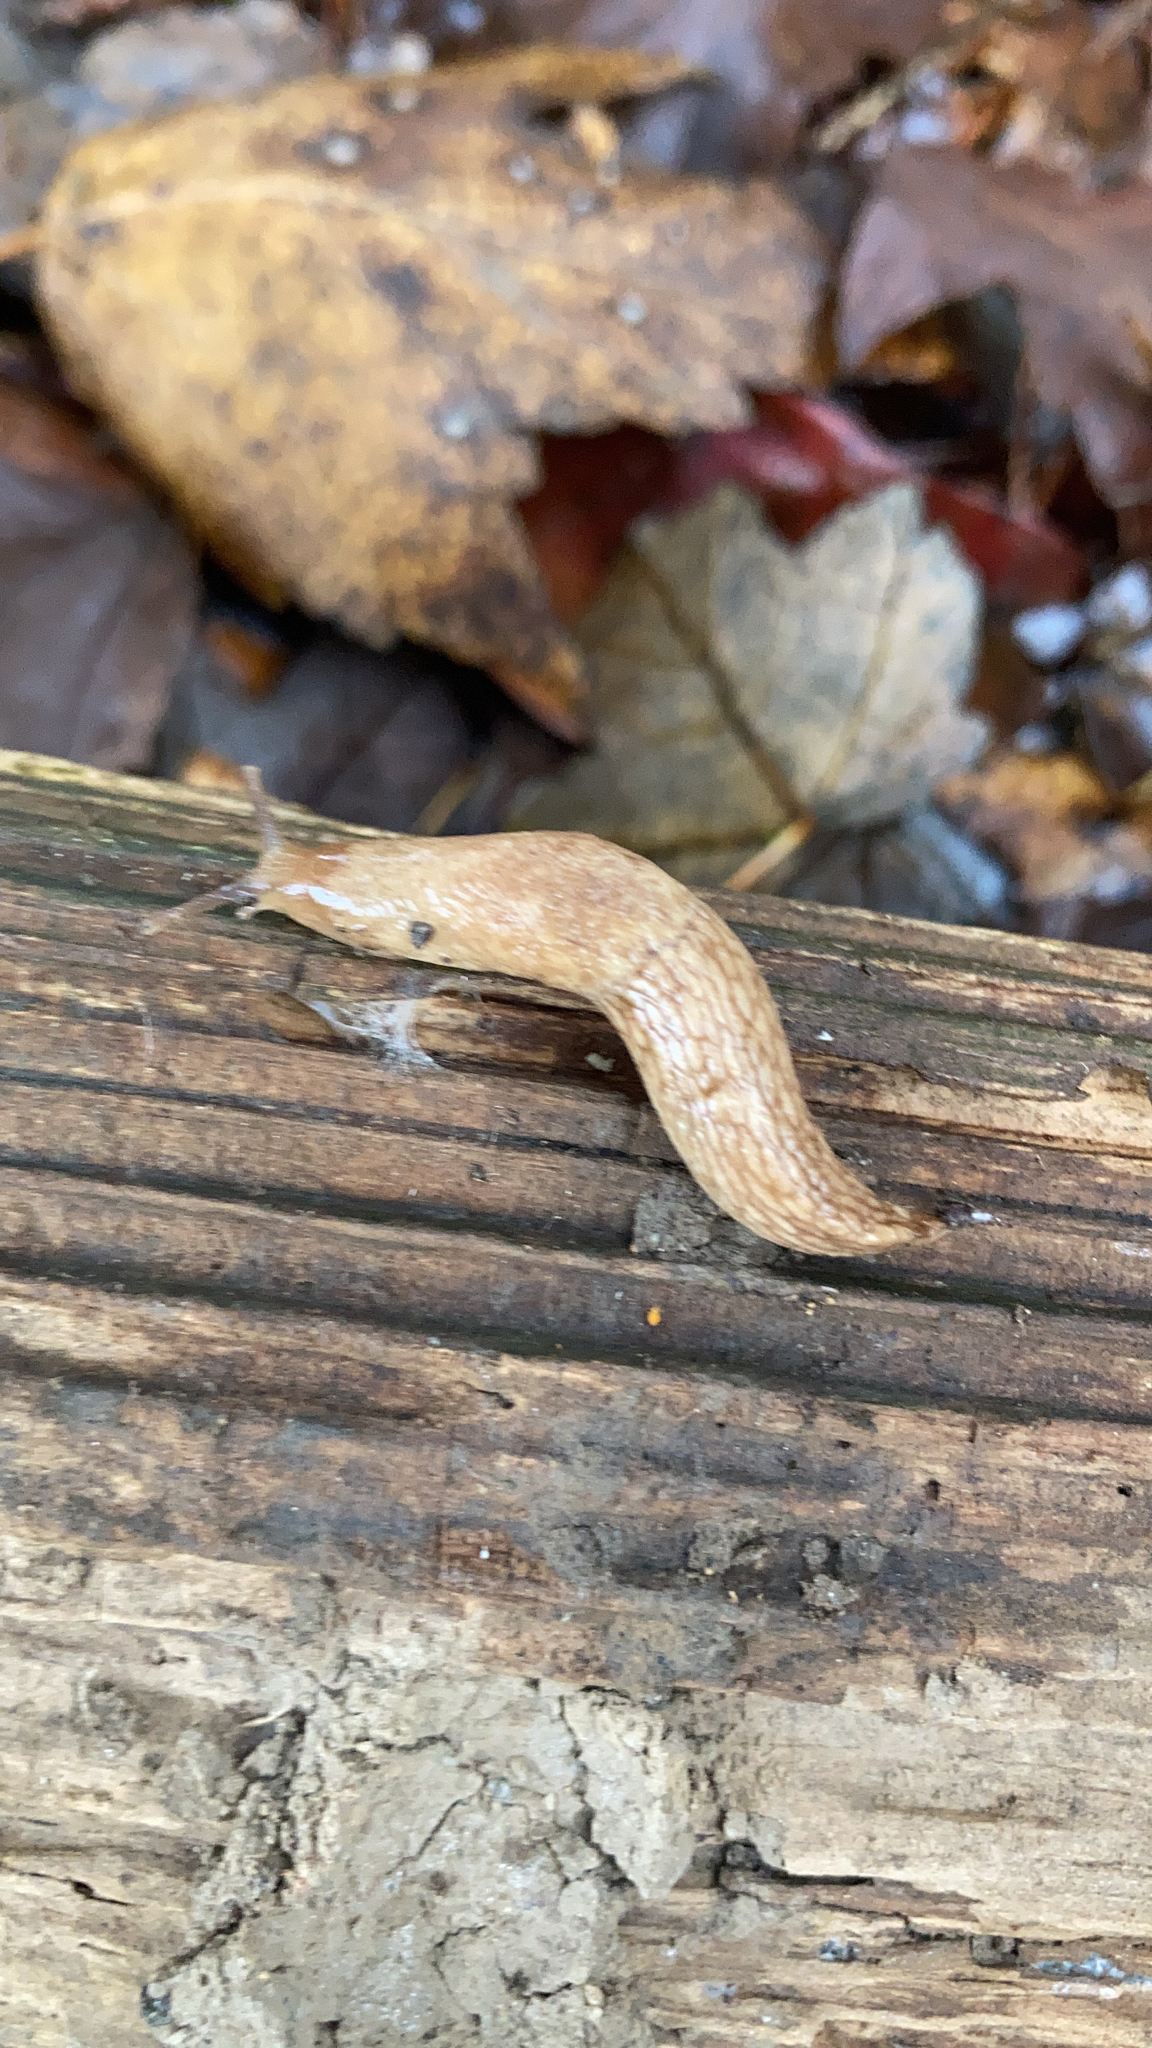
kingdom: Animalia
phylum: Mollusca
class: Gastropoda
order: Stylommatophora
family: Agriolimacidae
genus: Deroceras
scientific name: Deroceras reticulatum
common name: Gray field slug
